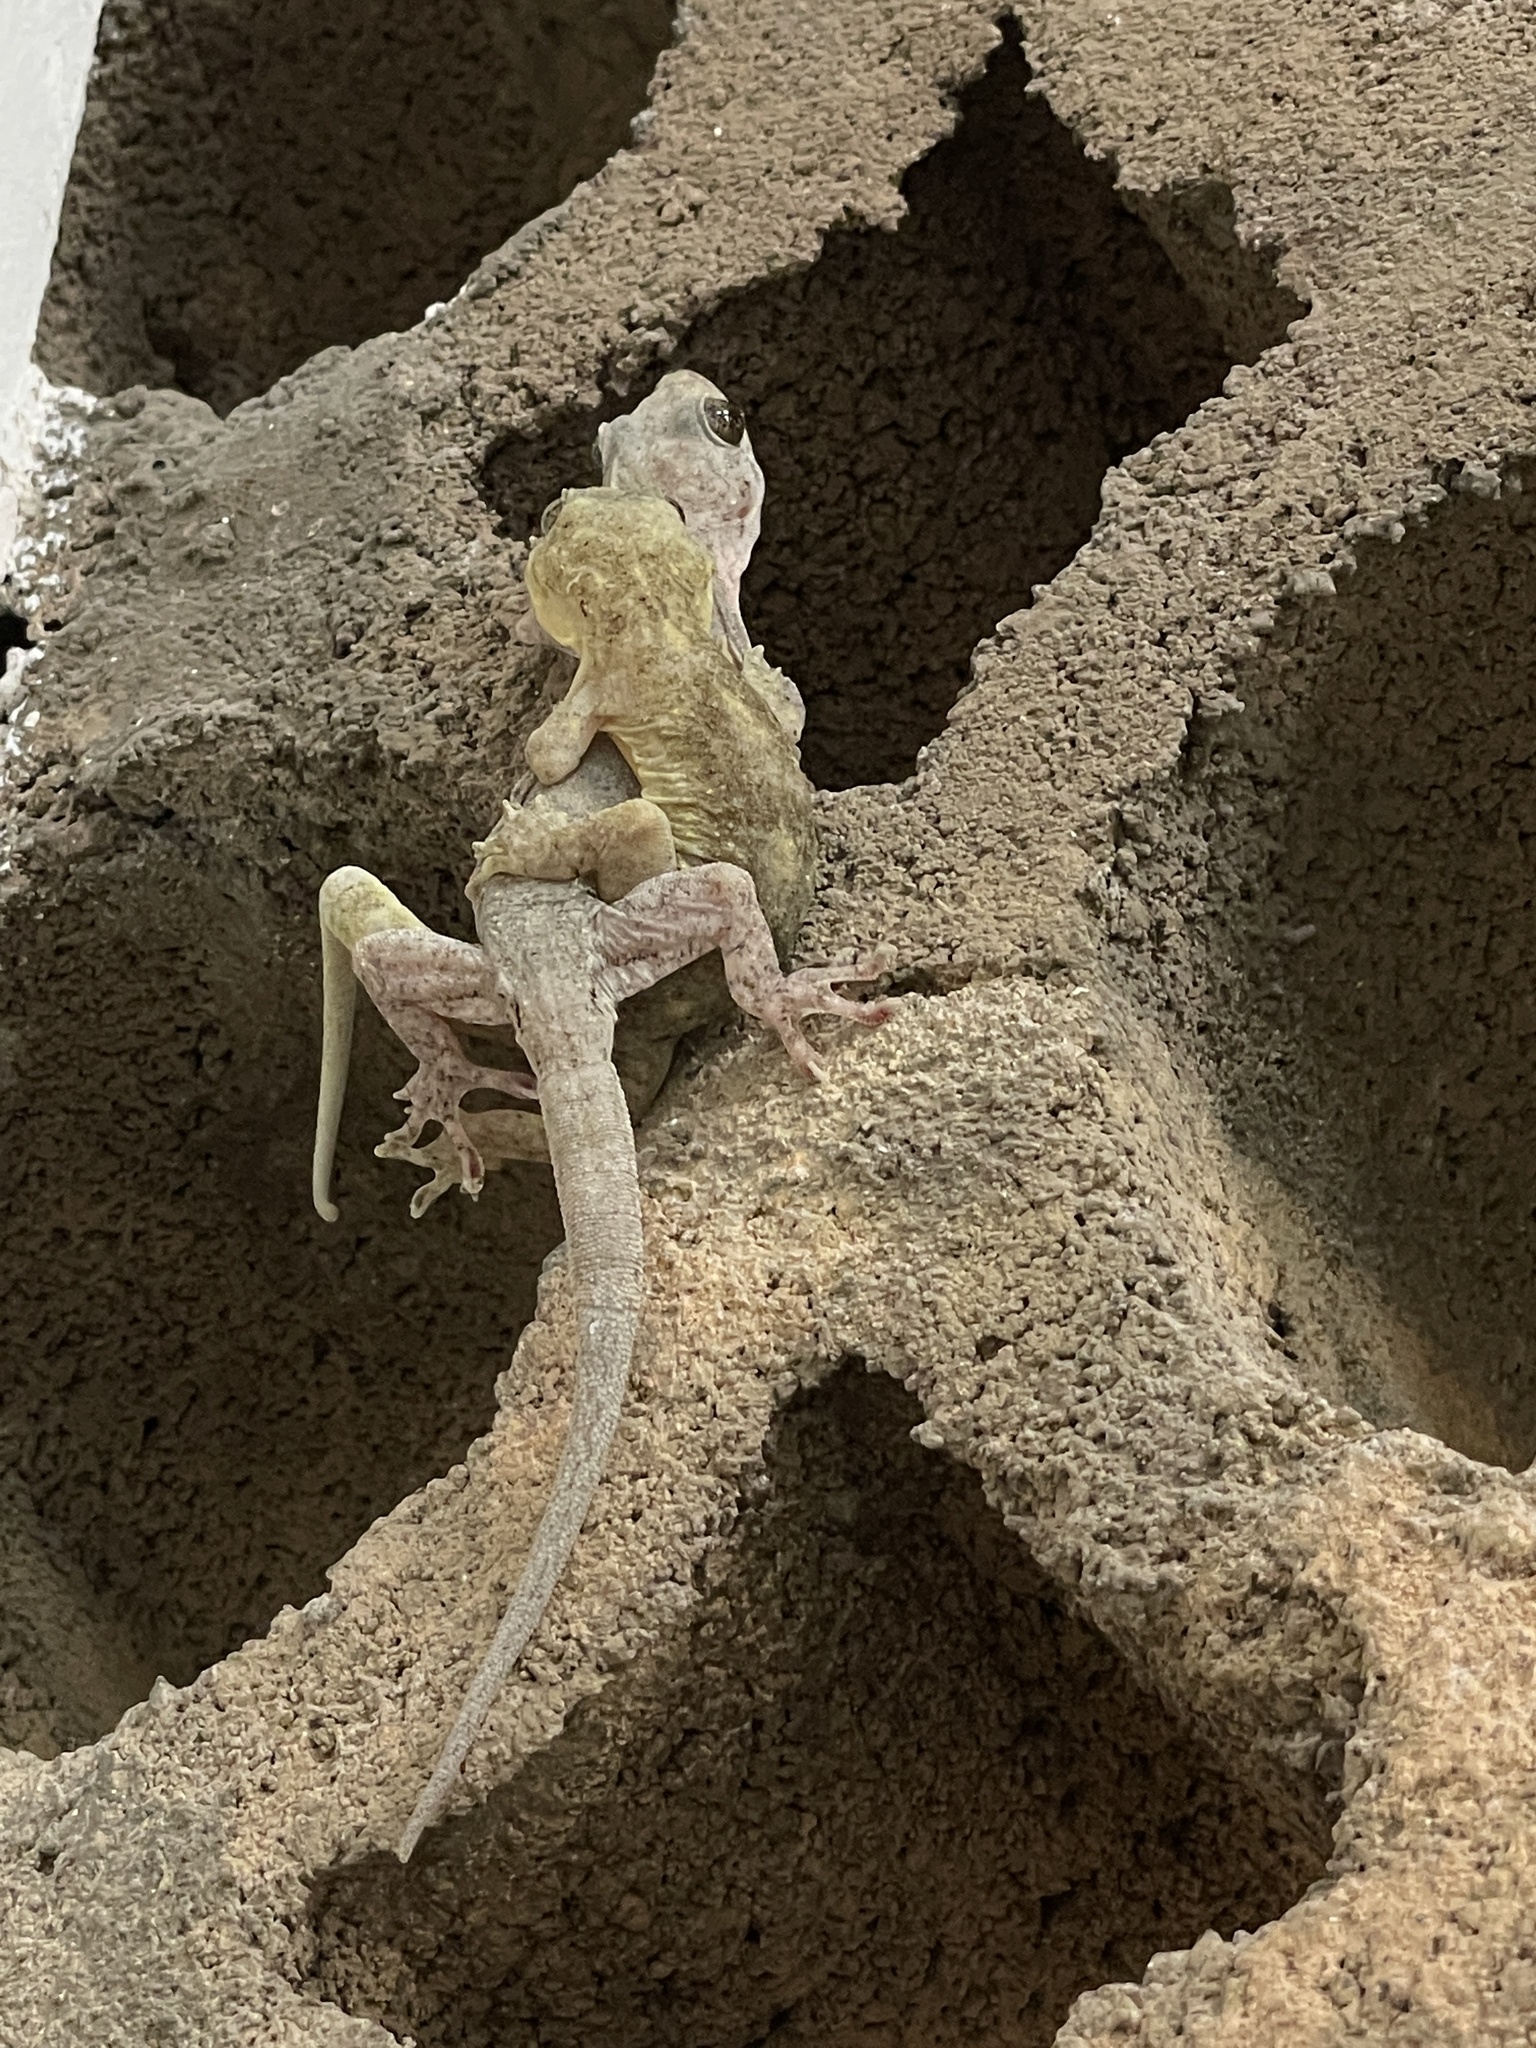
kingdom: Animalia
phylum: Chordata
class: Squamata
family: Gekkonidae
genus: Gekko
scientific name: Gekko chinensis
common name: Gray's chinese gecko
